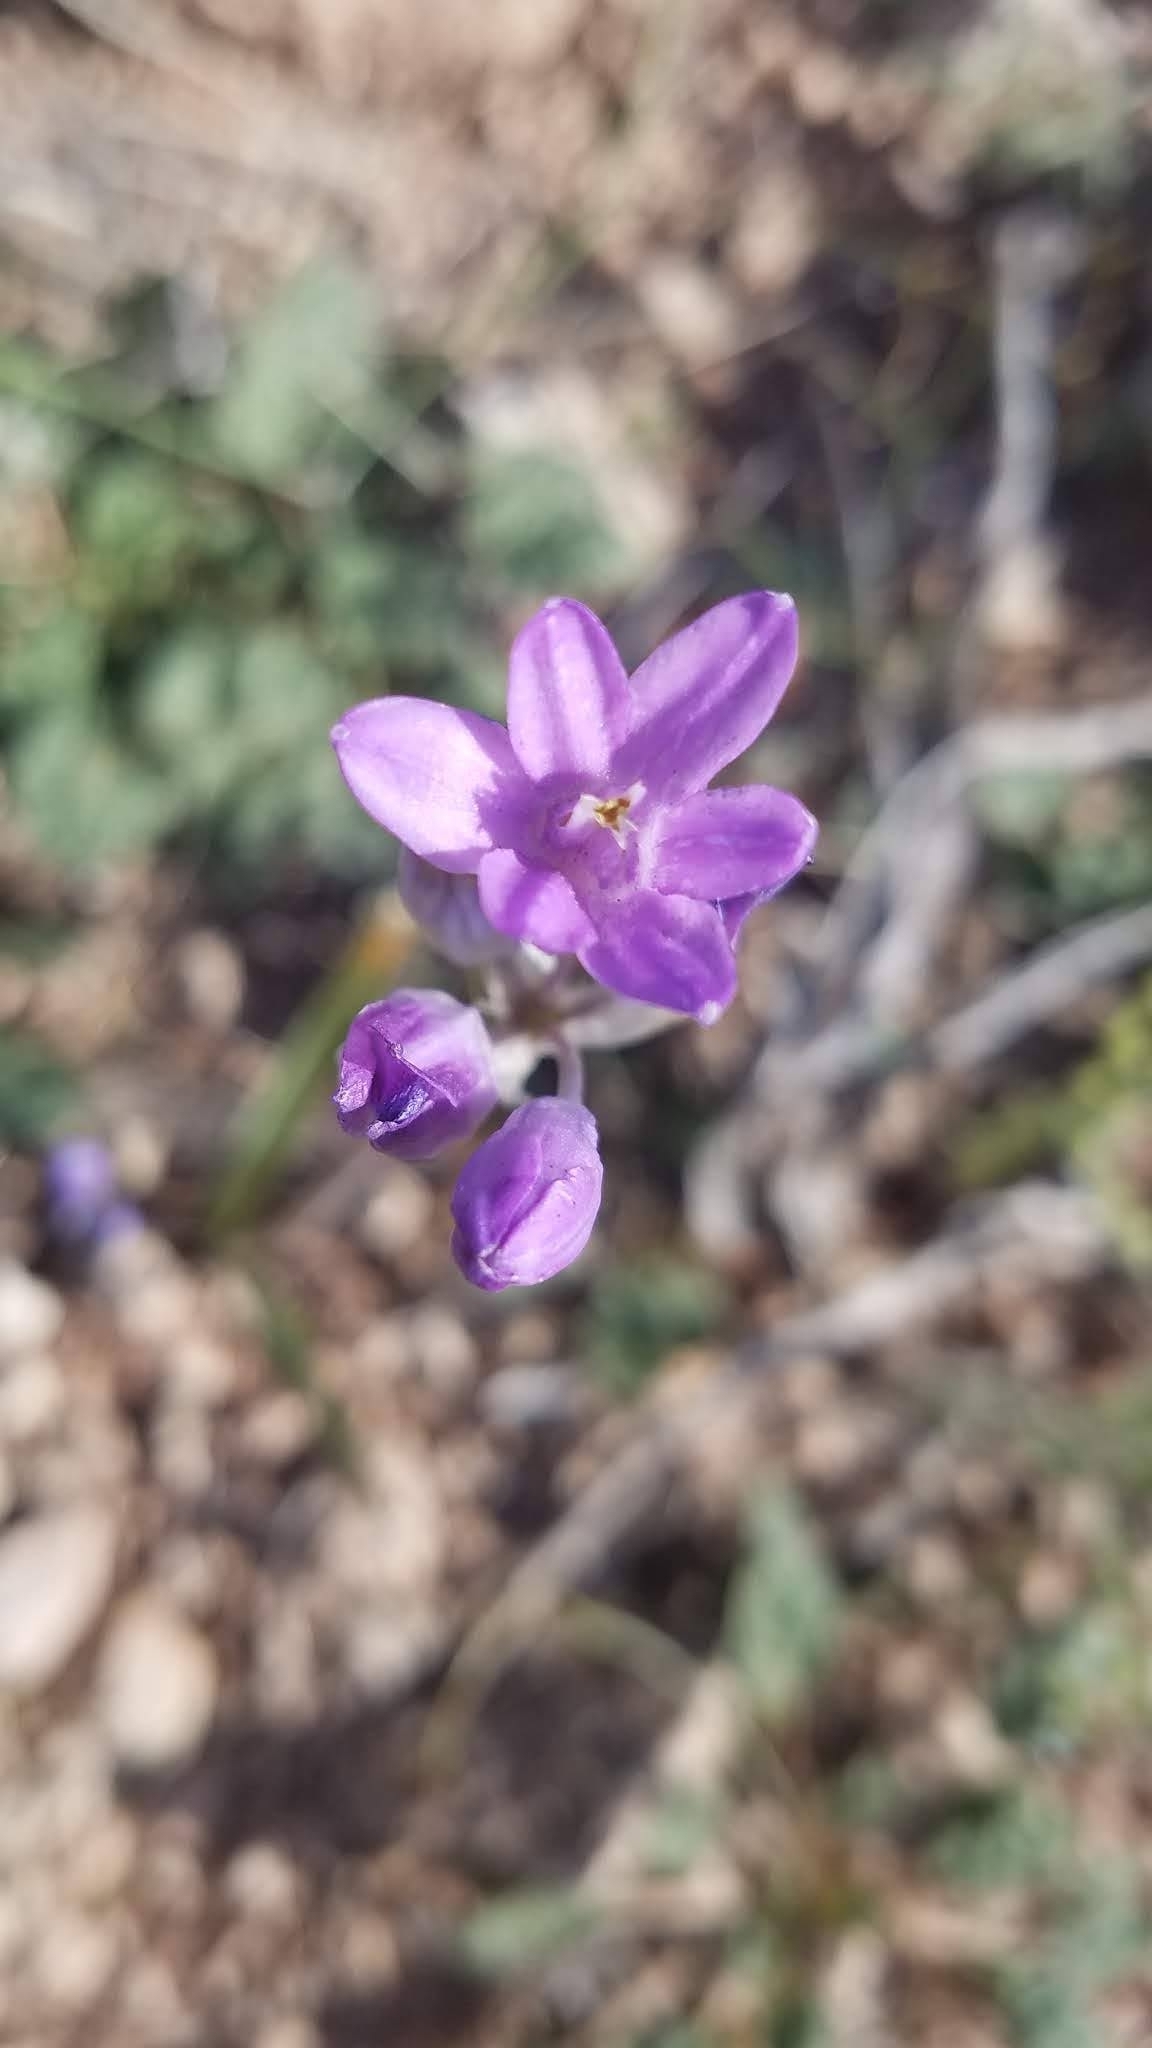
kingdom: Plantae
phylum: Tracheophyta
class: Liliopsida
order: Asparagales
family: Asparagaceae
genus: Dipterostemon
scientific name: Dipterostemon capitatus
